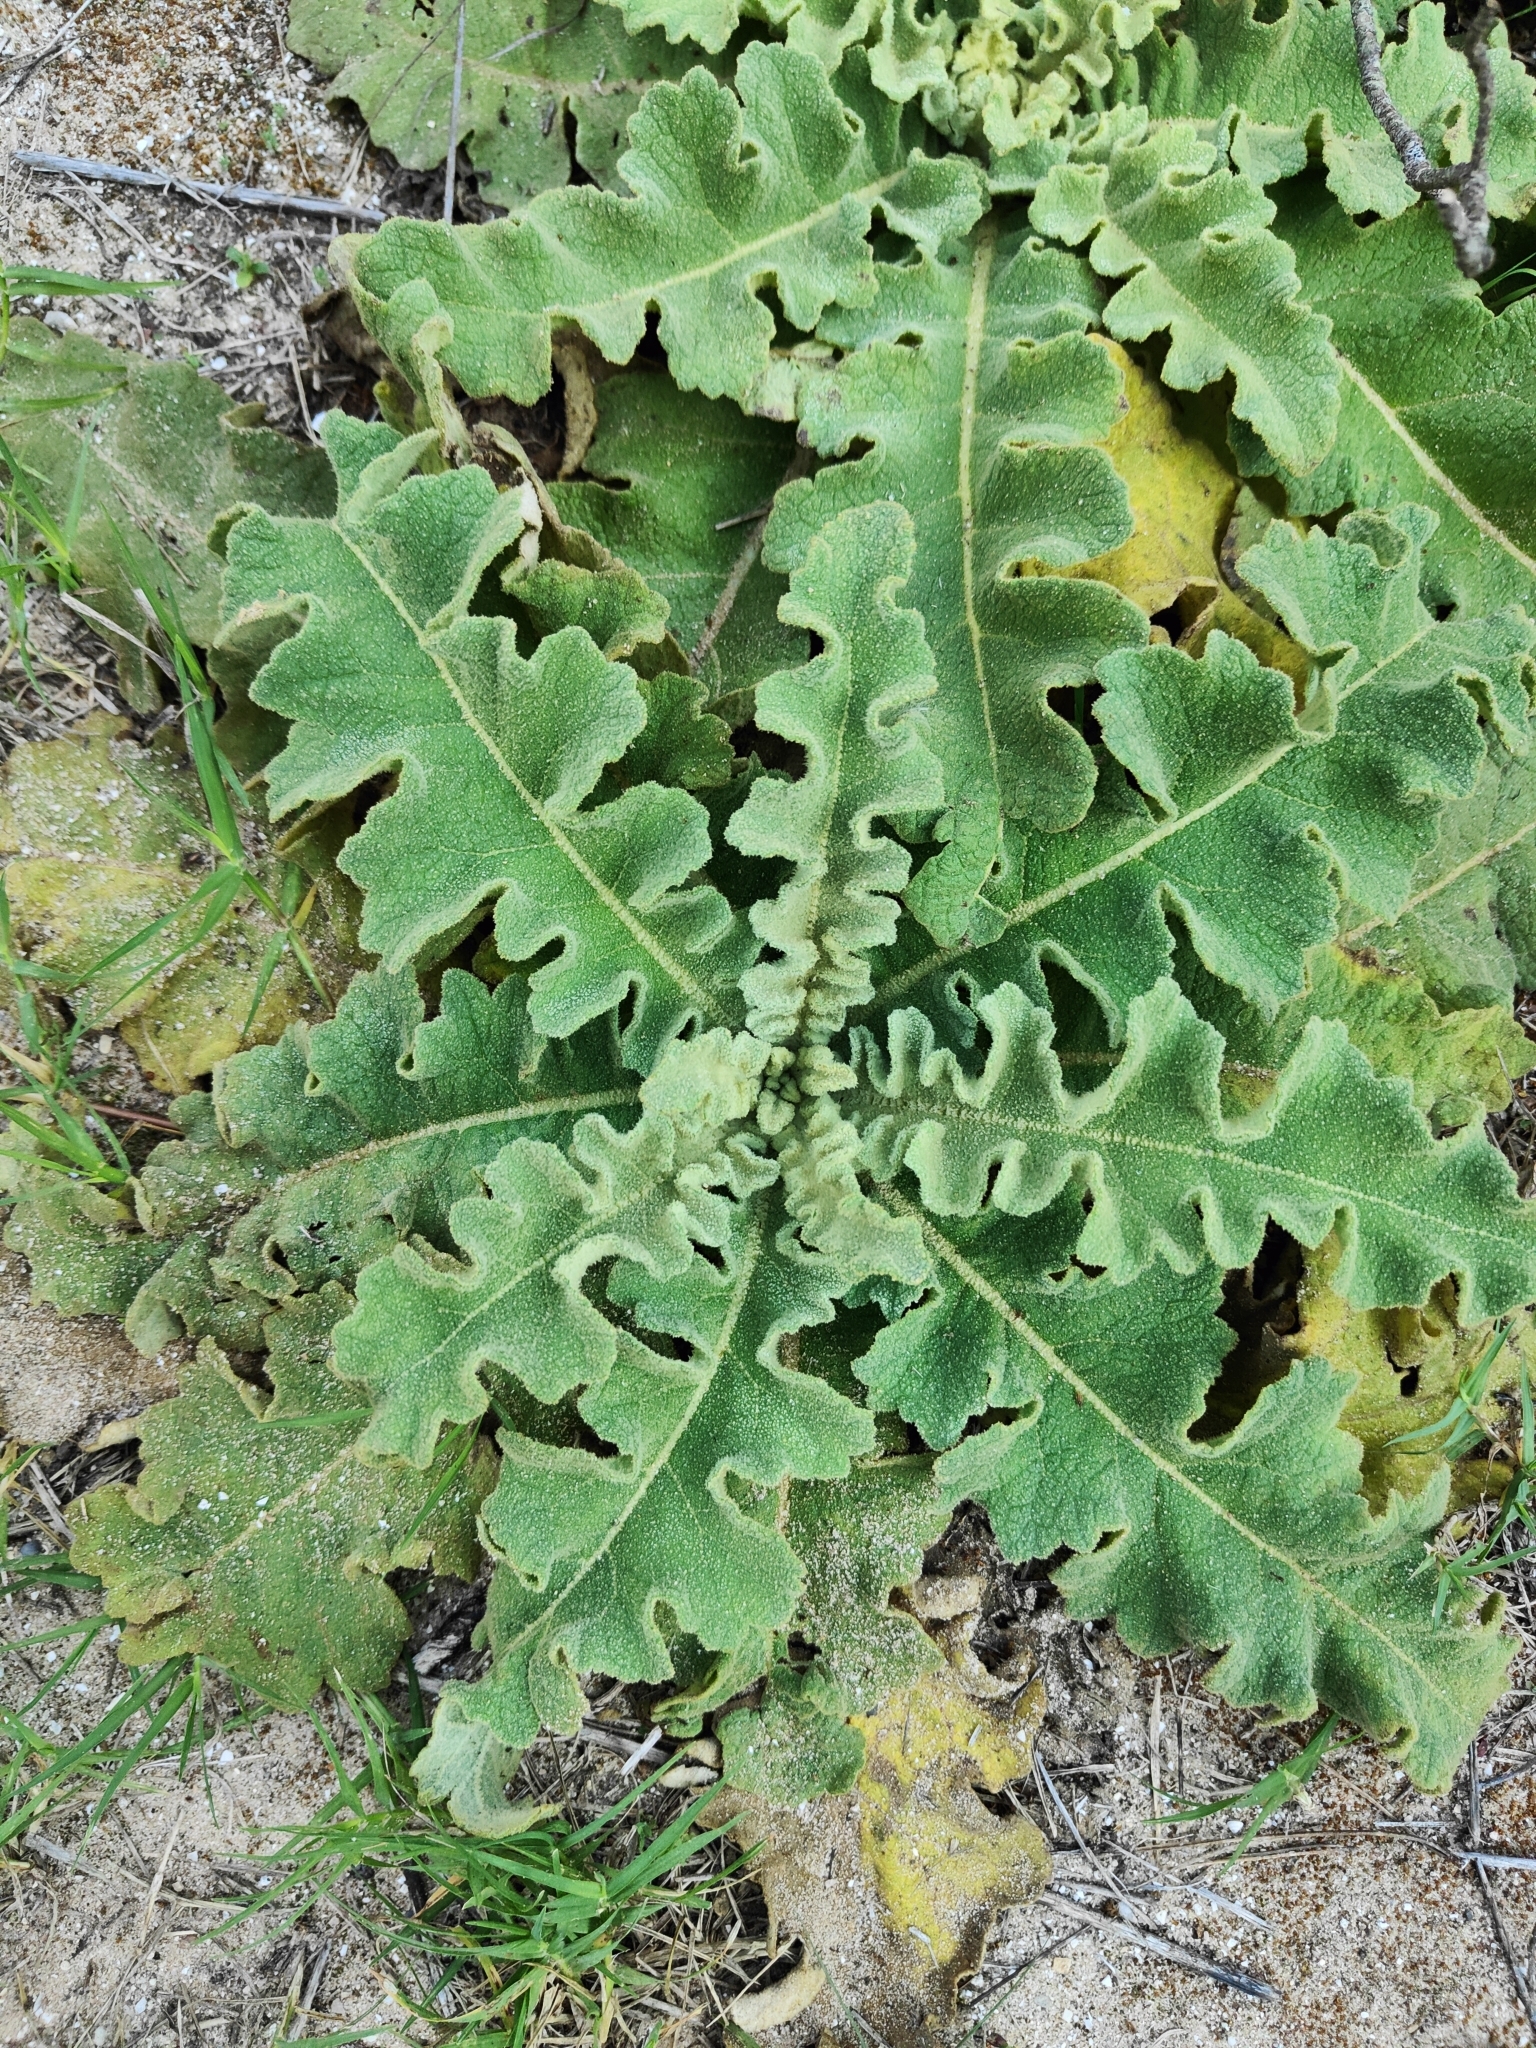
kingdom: Plantae
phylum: Tracheophyta
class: Magnoliopsida
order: Lamiales
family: Scrophulariaceae
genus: Verbascum
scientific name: Verbascum sinuatum
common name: Wavyleaf mullein
